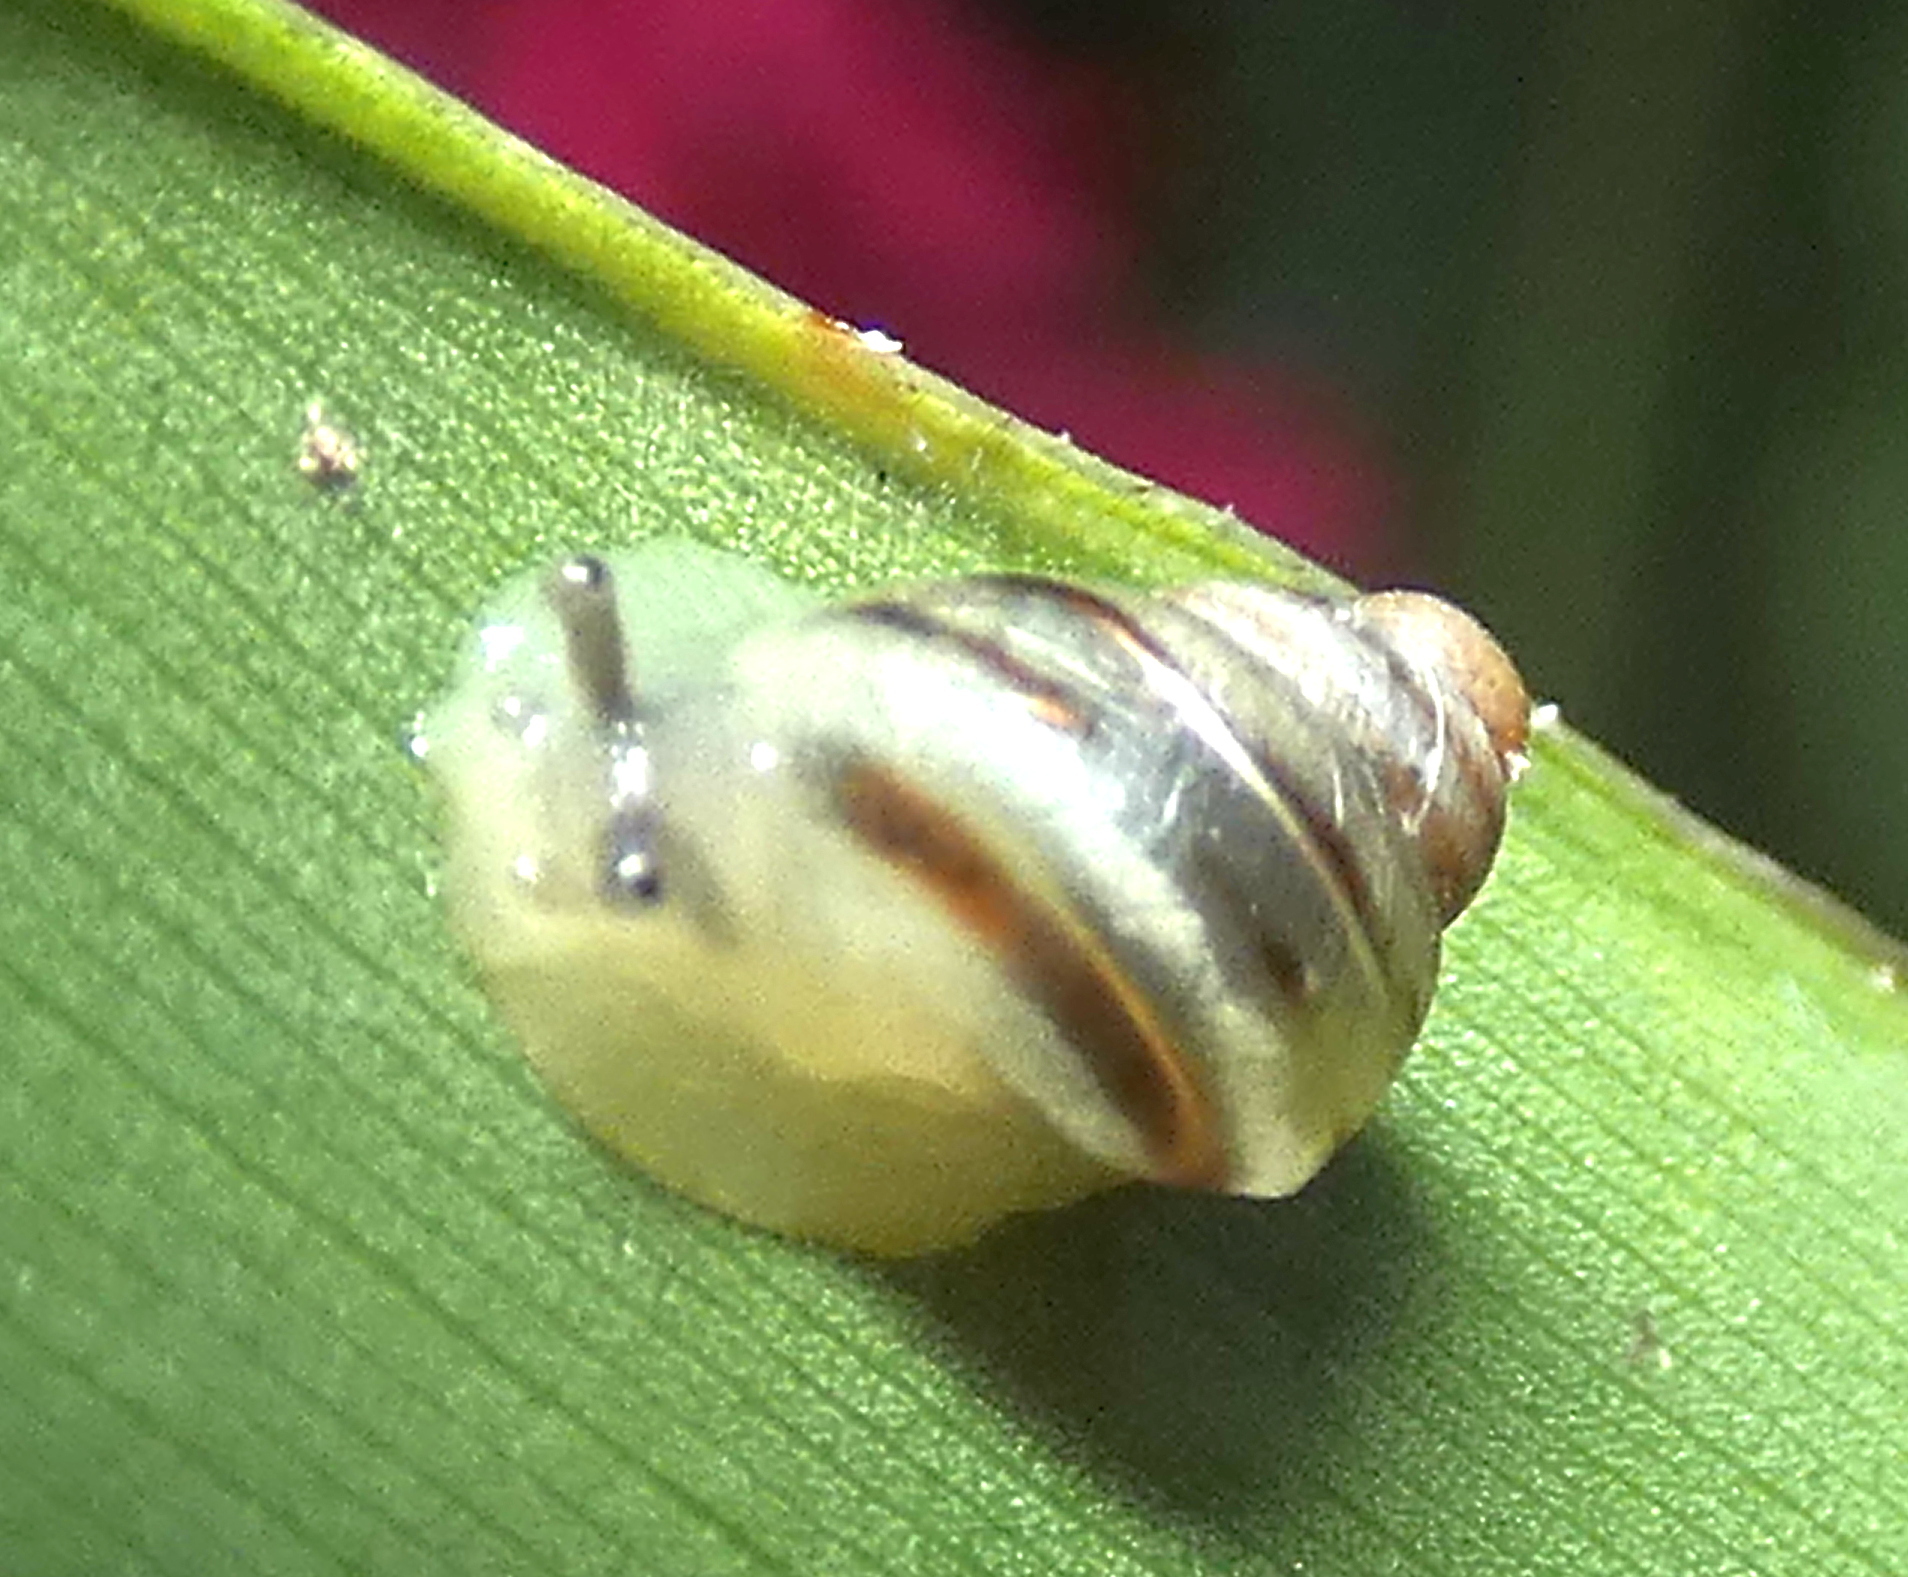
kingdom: Animalia
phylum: Mollusca
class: Gastropoda
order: Stylommatophora
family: Bulimulidae
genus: Drymaeus
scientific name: Drymaeus
